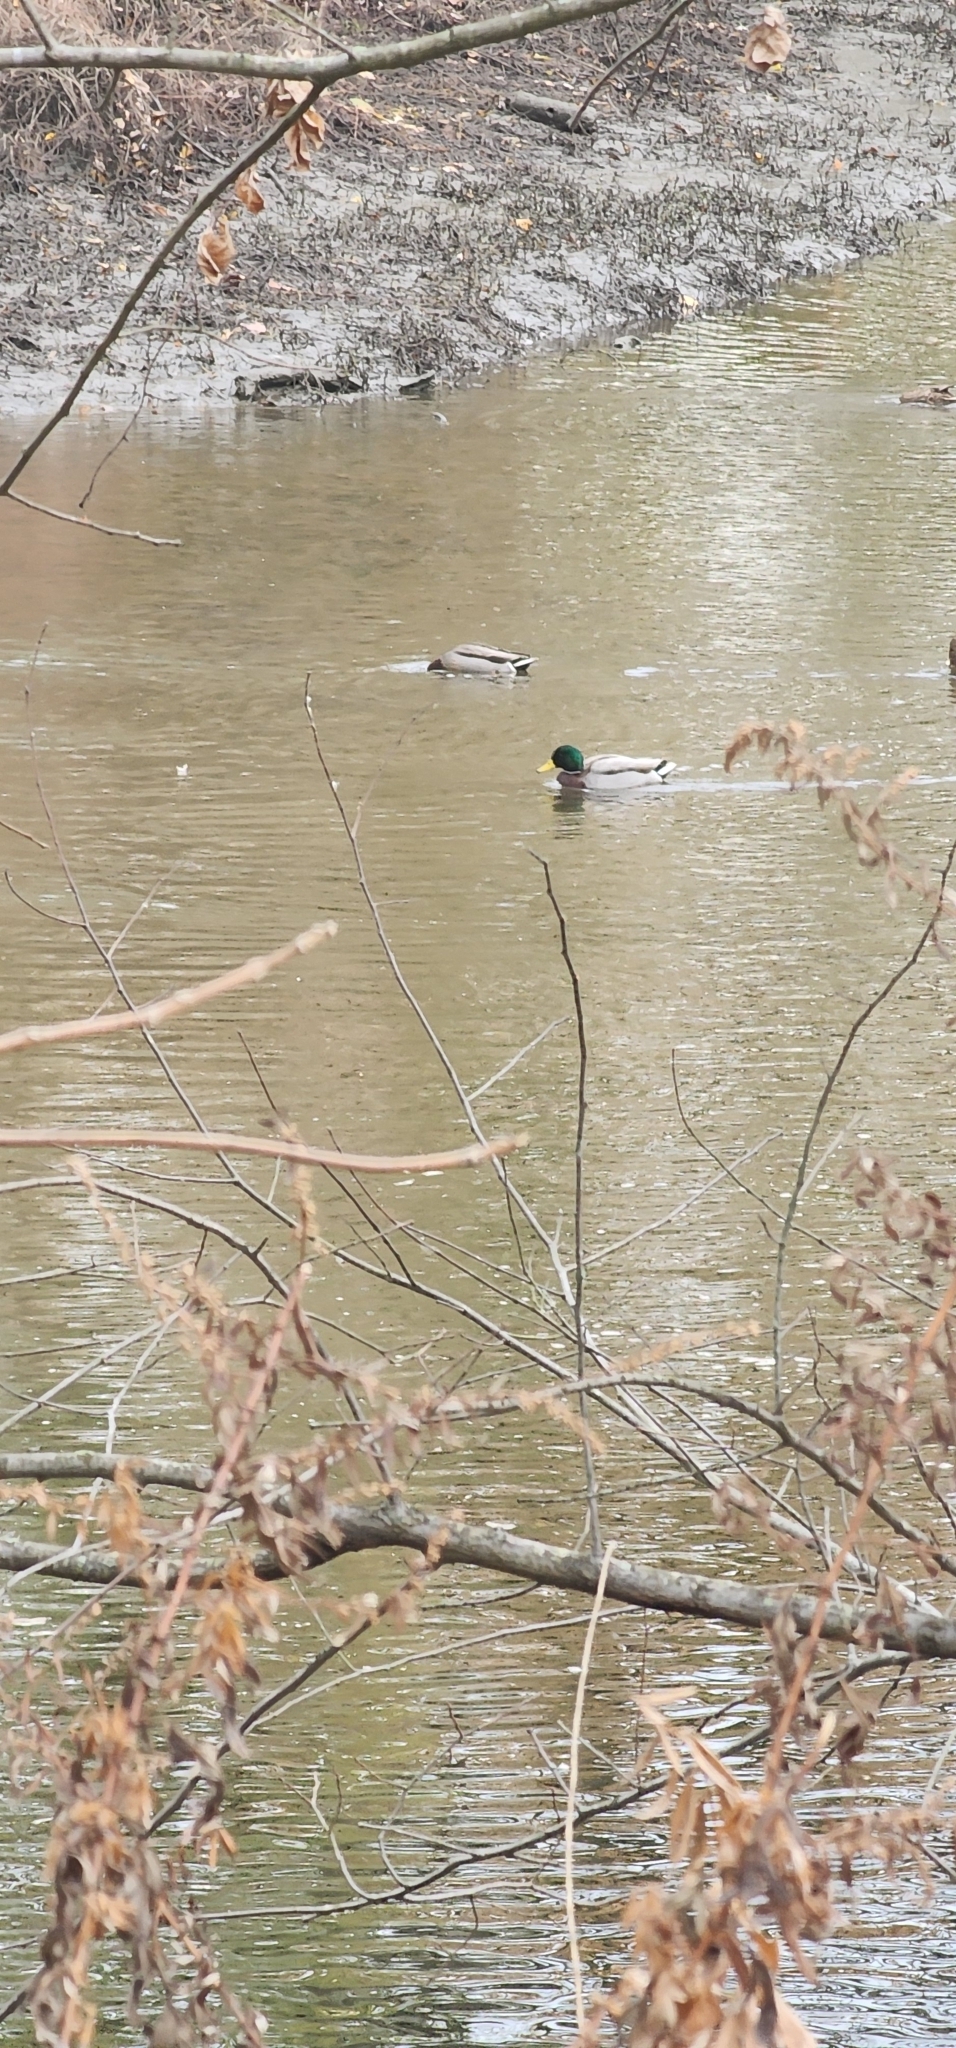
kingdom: Animalia
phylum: Chordata
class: Aves
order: Anseriformes
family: Anatidae
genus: Anas
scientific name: Anas platyrhynchos
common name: Mallard
